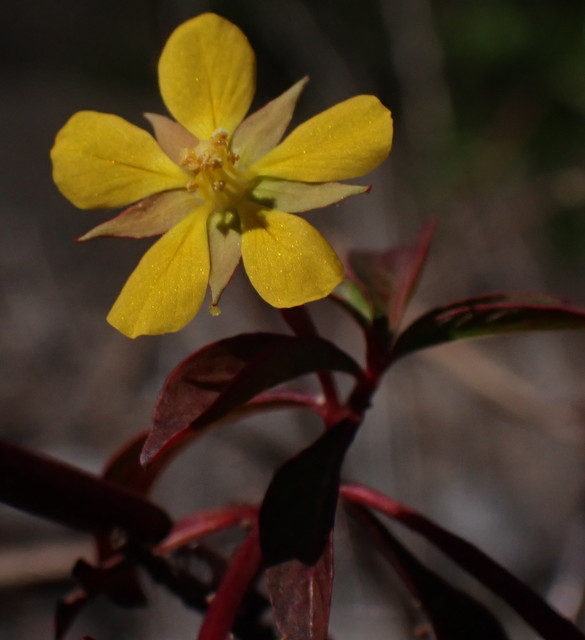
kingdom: Plantae
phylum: Tracheophyta
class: Magnoliopsida
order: Myrtales
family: Onagraceae
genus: Ludwigia
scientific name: Ludwigia leptocarpa
